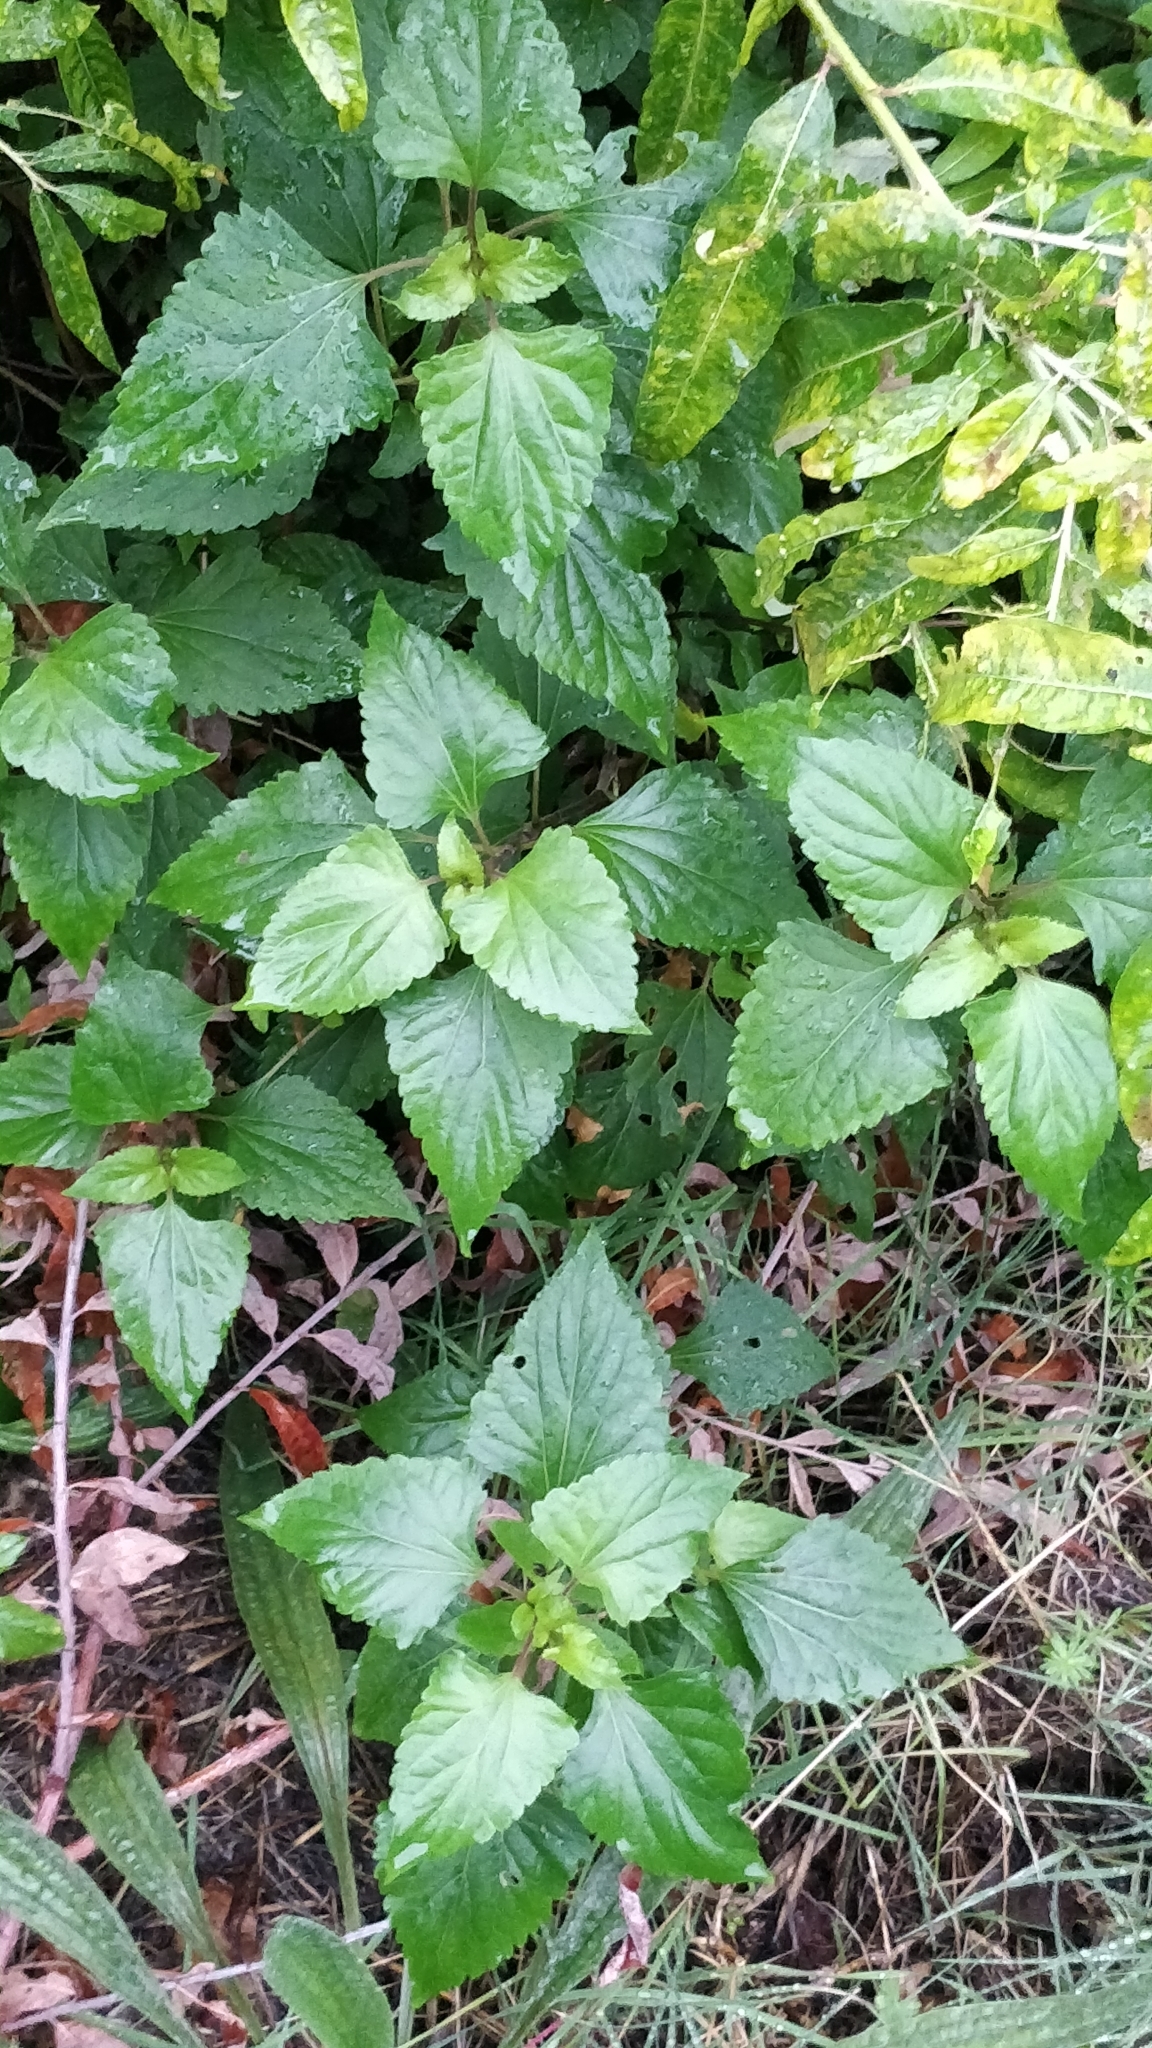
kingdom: Plantae
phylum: Tracheophyta
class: Magnoliopsida
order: Asterales
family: Asteraceae
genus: Ageratina
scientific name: Ageratina adenophora
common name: Sticky snakeroot
